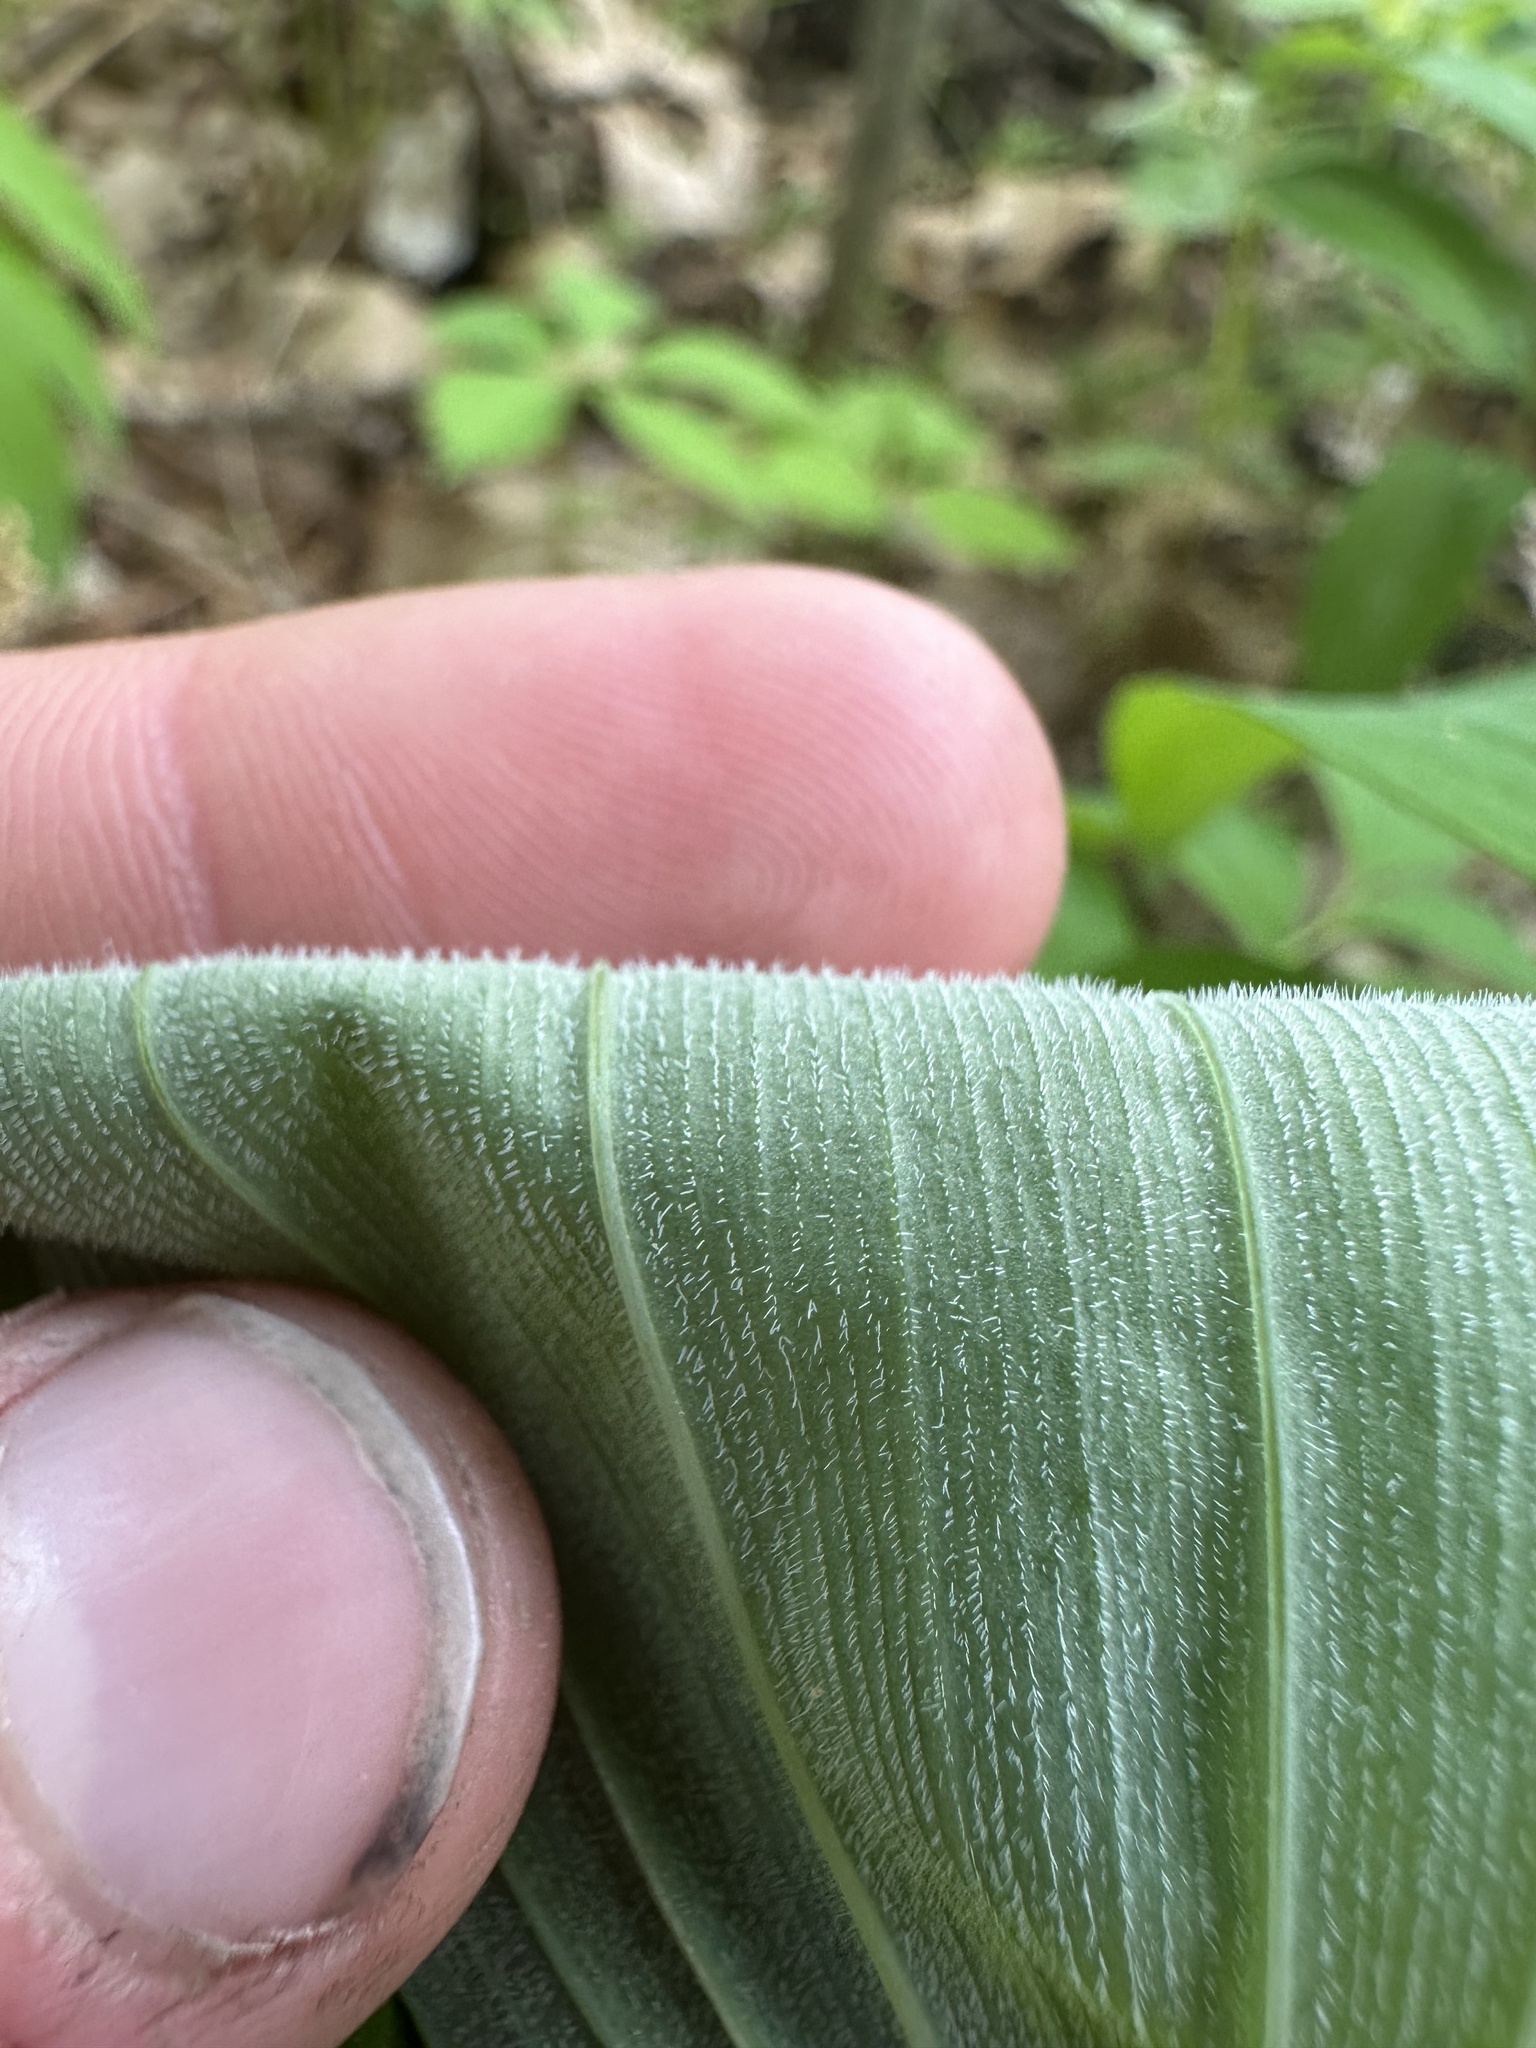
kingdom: Plantae
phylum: Tracheophyta
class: Liliopsida
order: Asparagales
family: Asparagaceae
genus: Polygonatum
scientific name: Polygonatum pubescens
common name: Downy solomon's seal
